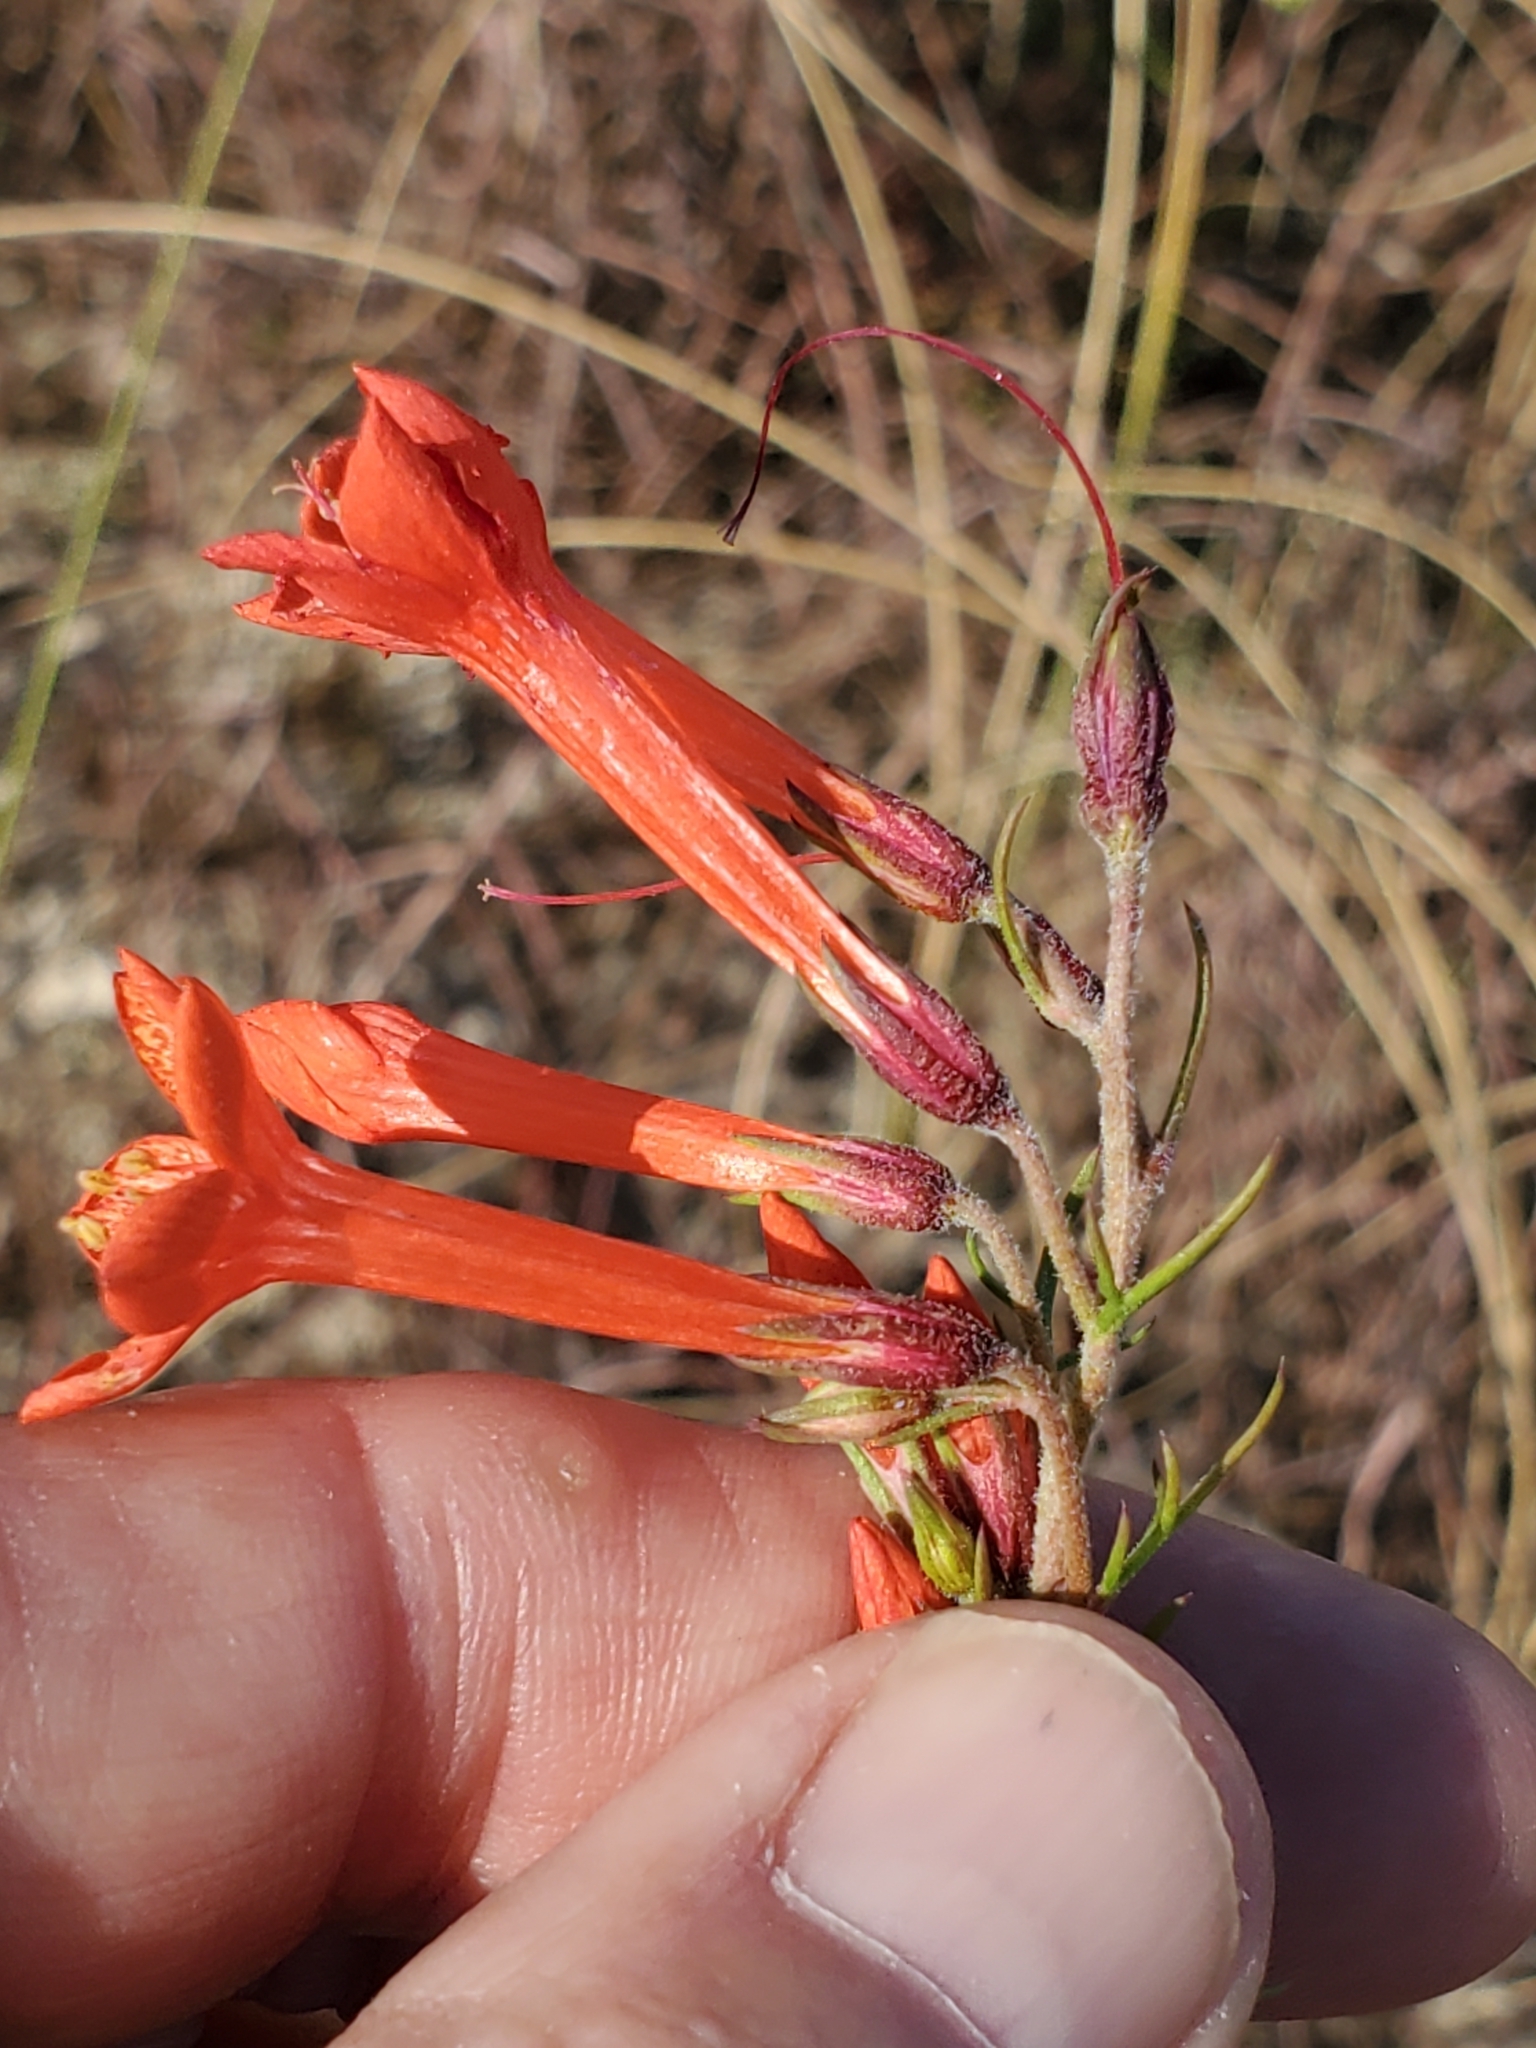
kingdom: Plantae
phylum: Tracheophyta
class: Magnoliopsida
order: Ericales
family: Polemoniaceae
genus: Ipomopsis
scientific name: Ipomopsis rubra
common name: Skyrocket
